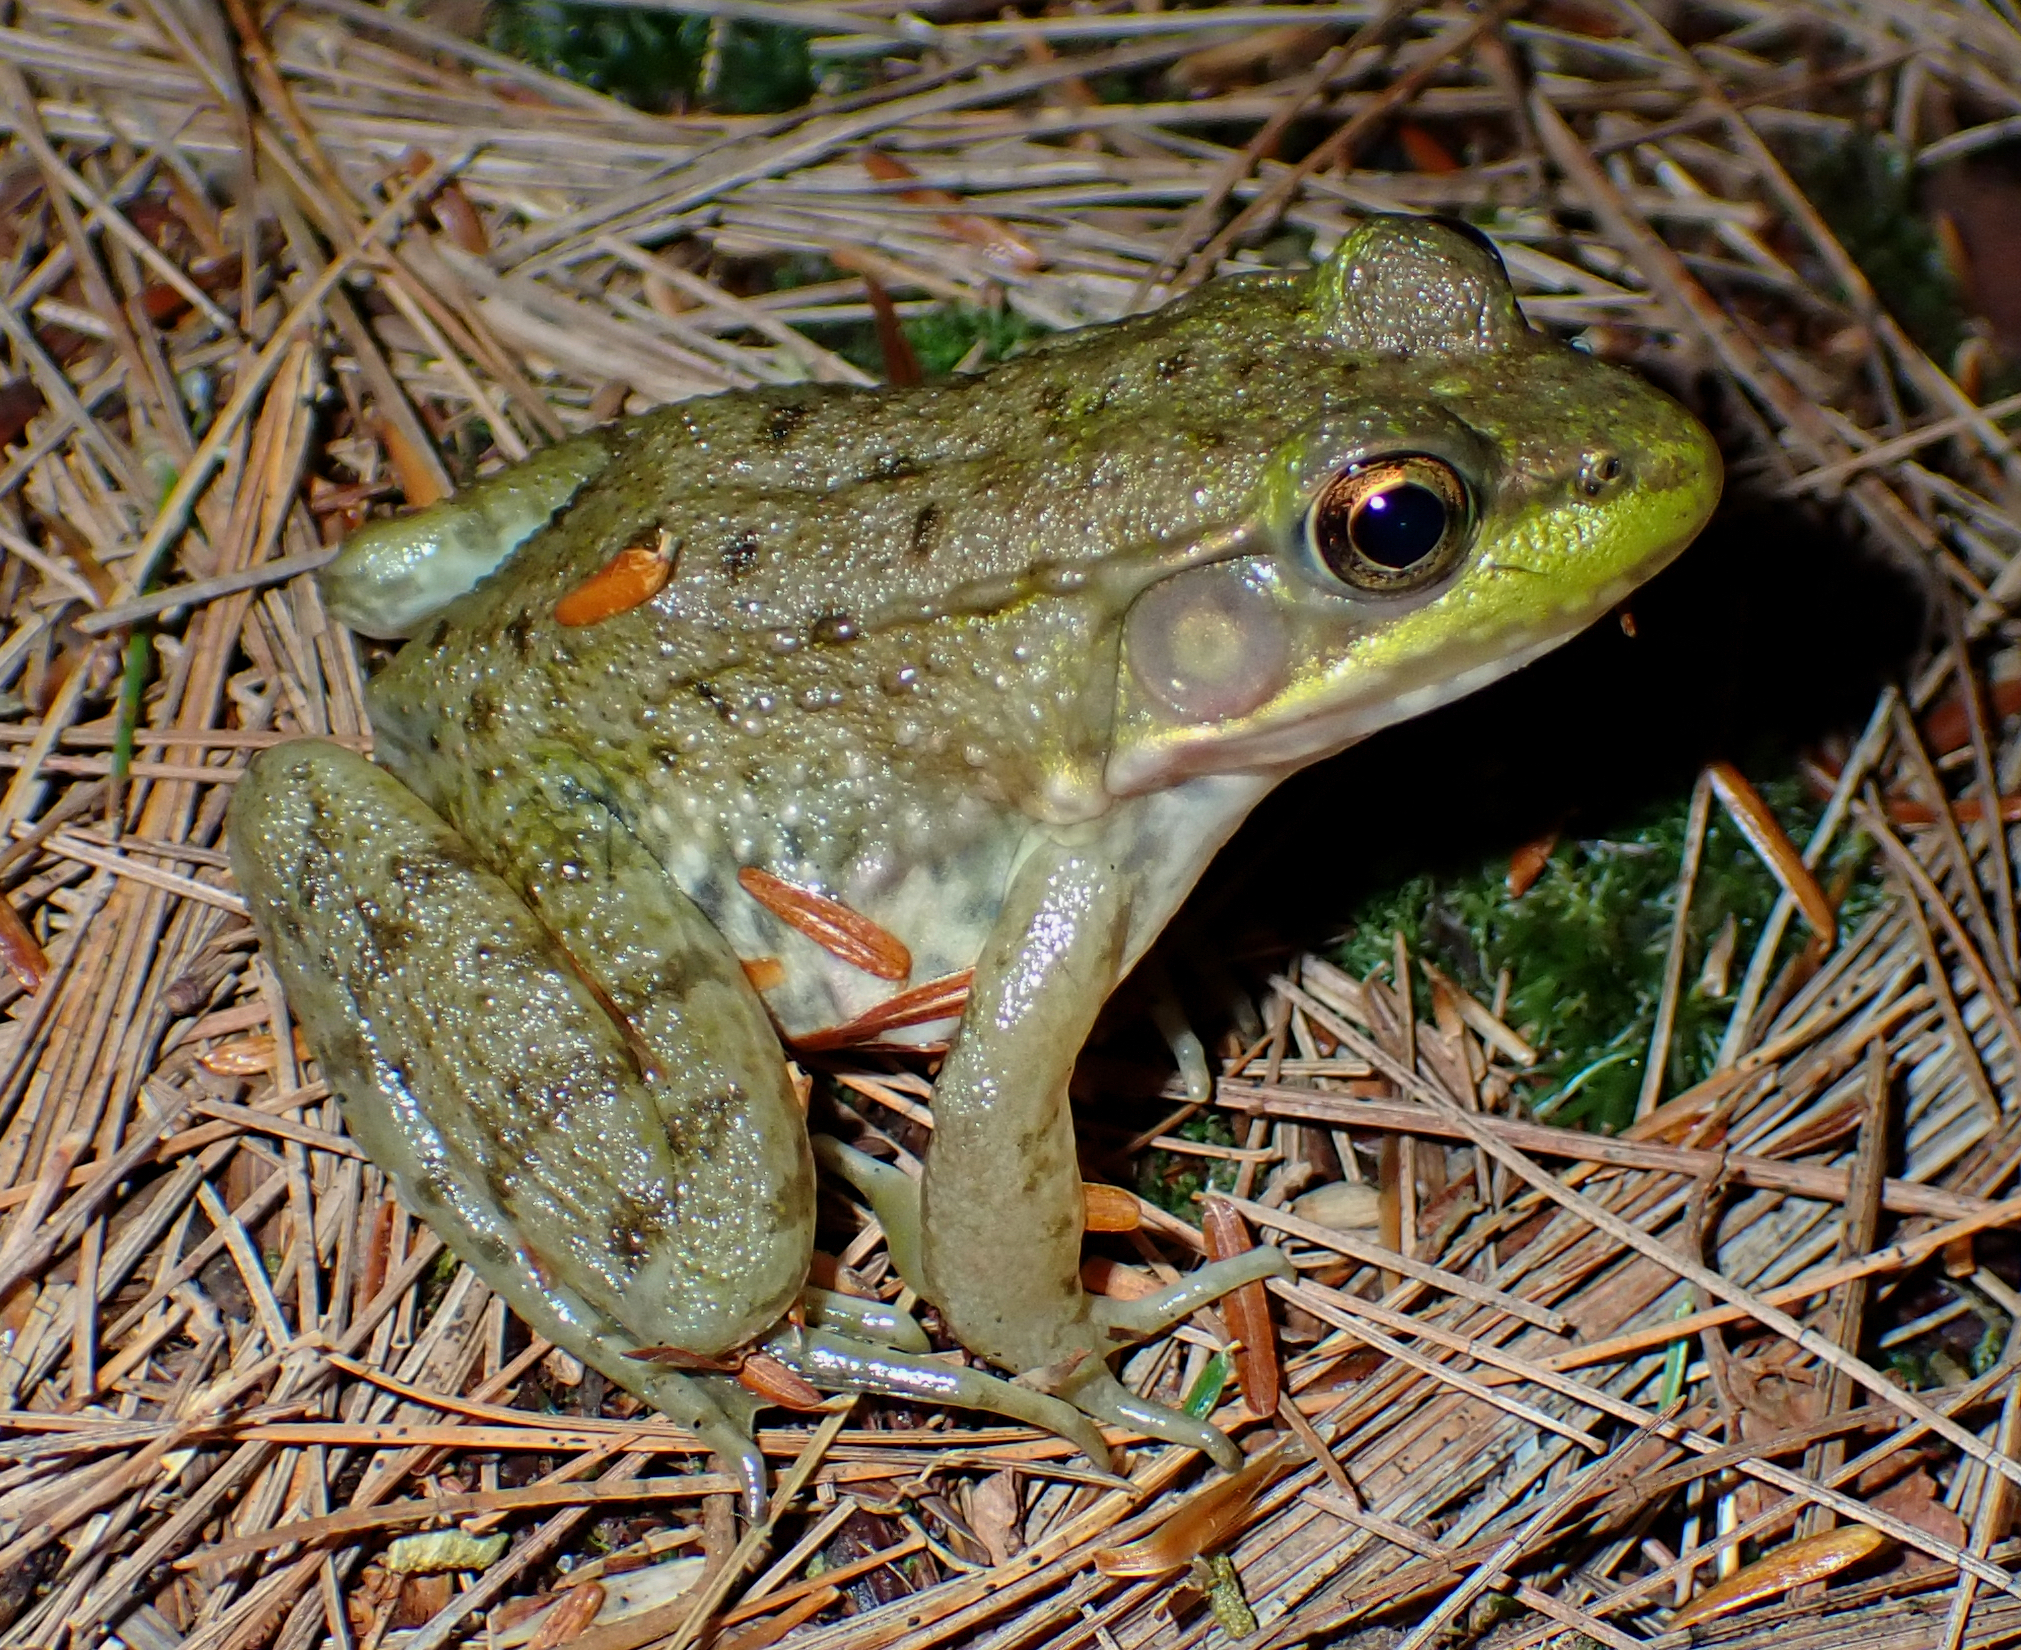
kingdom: Animalia
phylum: Chordata
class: Amphibia
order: Anura
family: Ranidae
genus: Lithobates
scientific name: Lithobates clamitans
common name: Green frog
